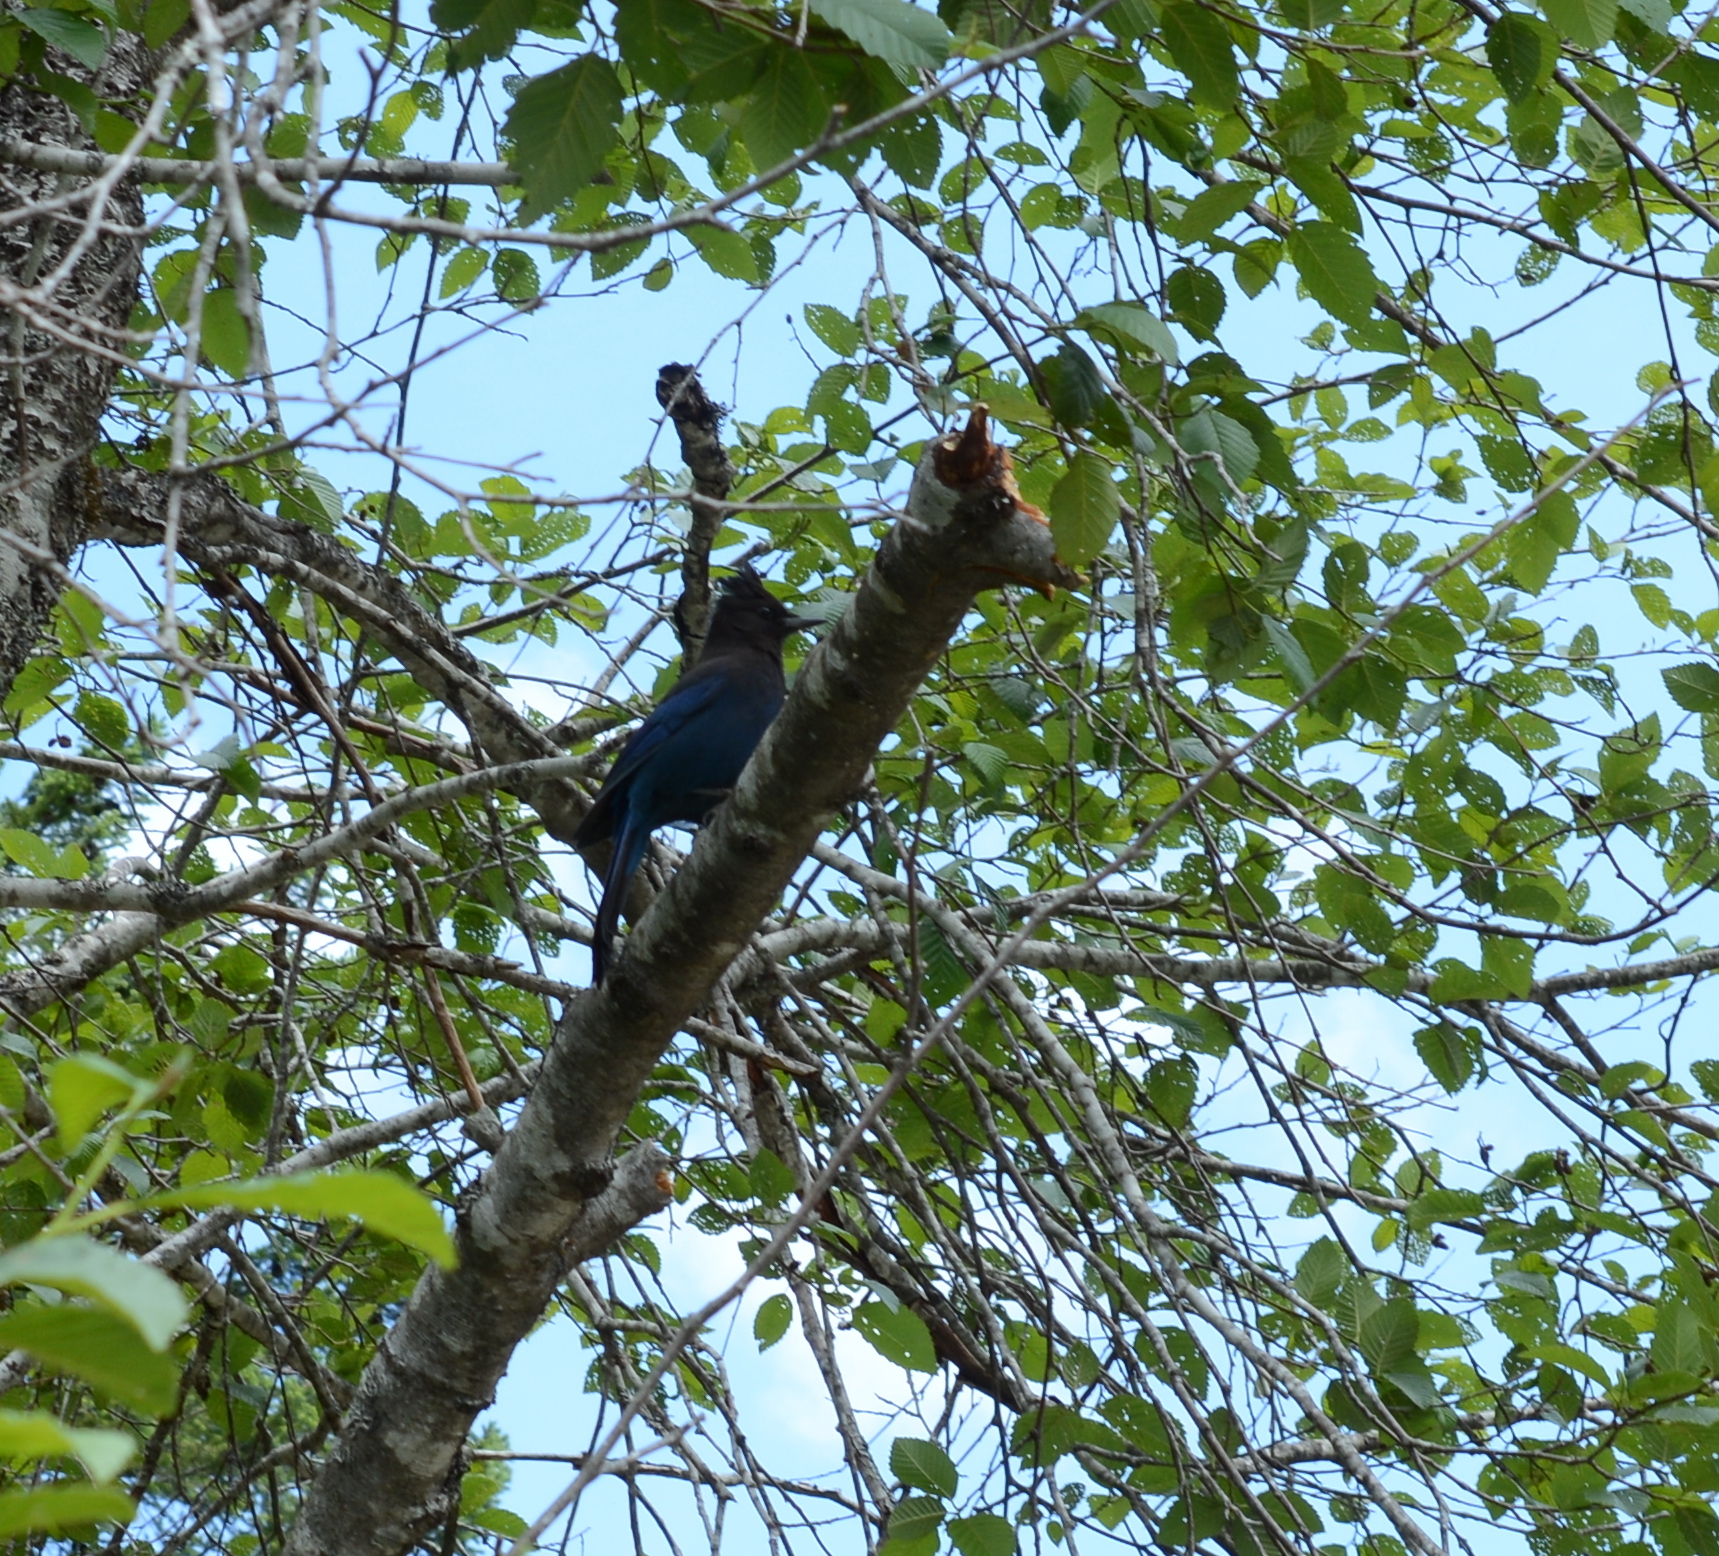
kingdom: Animalia
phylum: Chordata
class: Aves
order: Passeriformes
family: Corvidae
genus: Cyanocitta
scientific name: Cyanocitta stelleri
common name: Steller's jay
